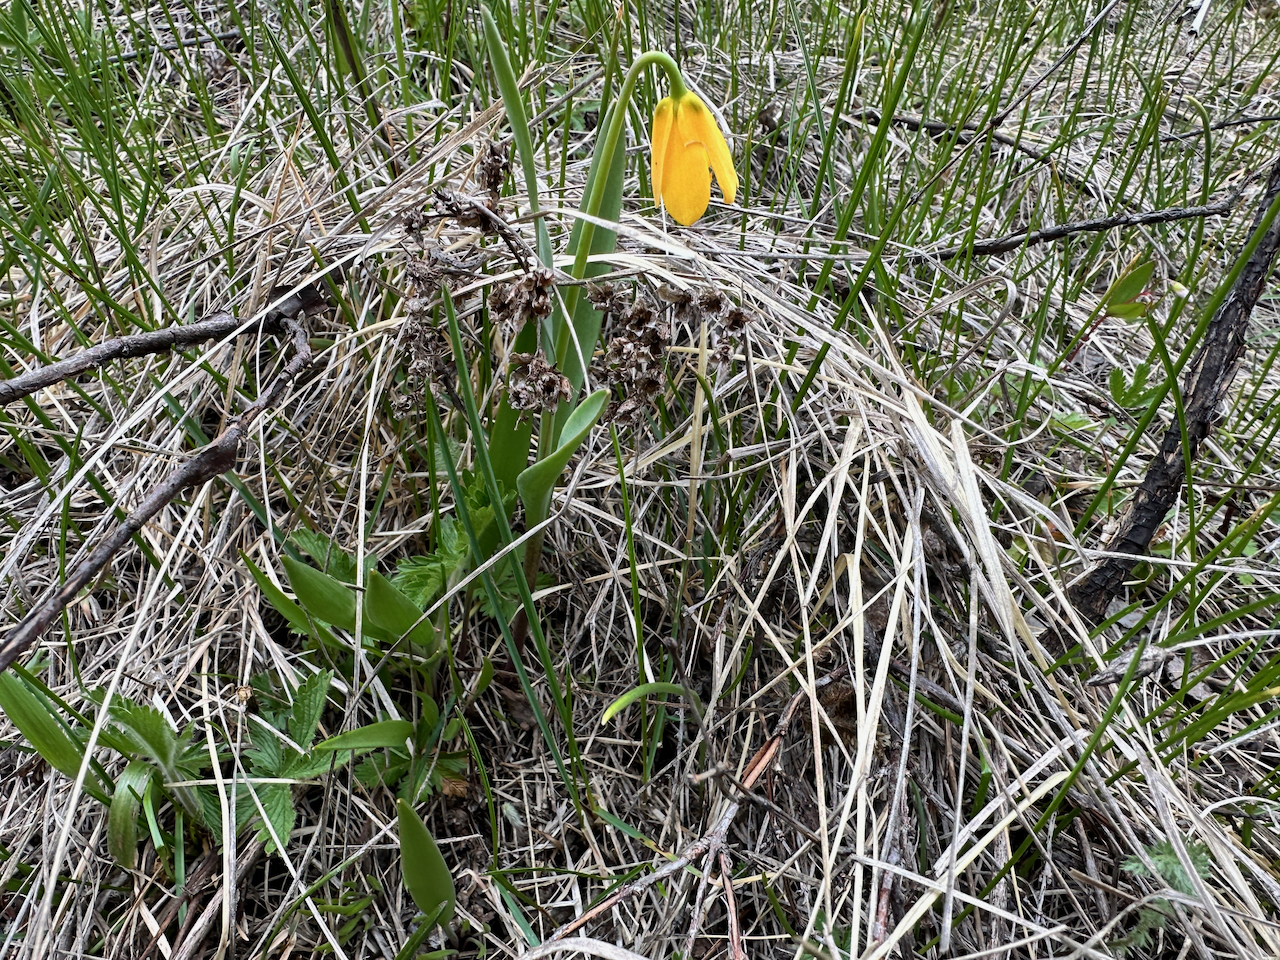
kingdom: Plantae
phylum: Tracheophyta
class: Liliopsida
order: Liliales
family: Liliaceae
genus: Fritillaria
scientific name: Fritillaria pudica
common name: Yellow fritillary
